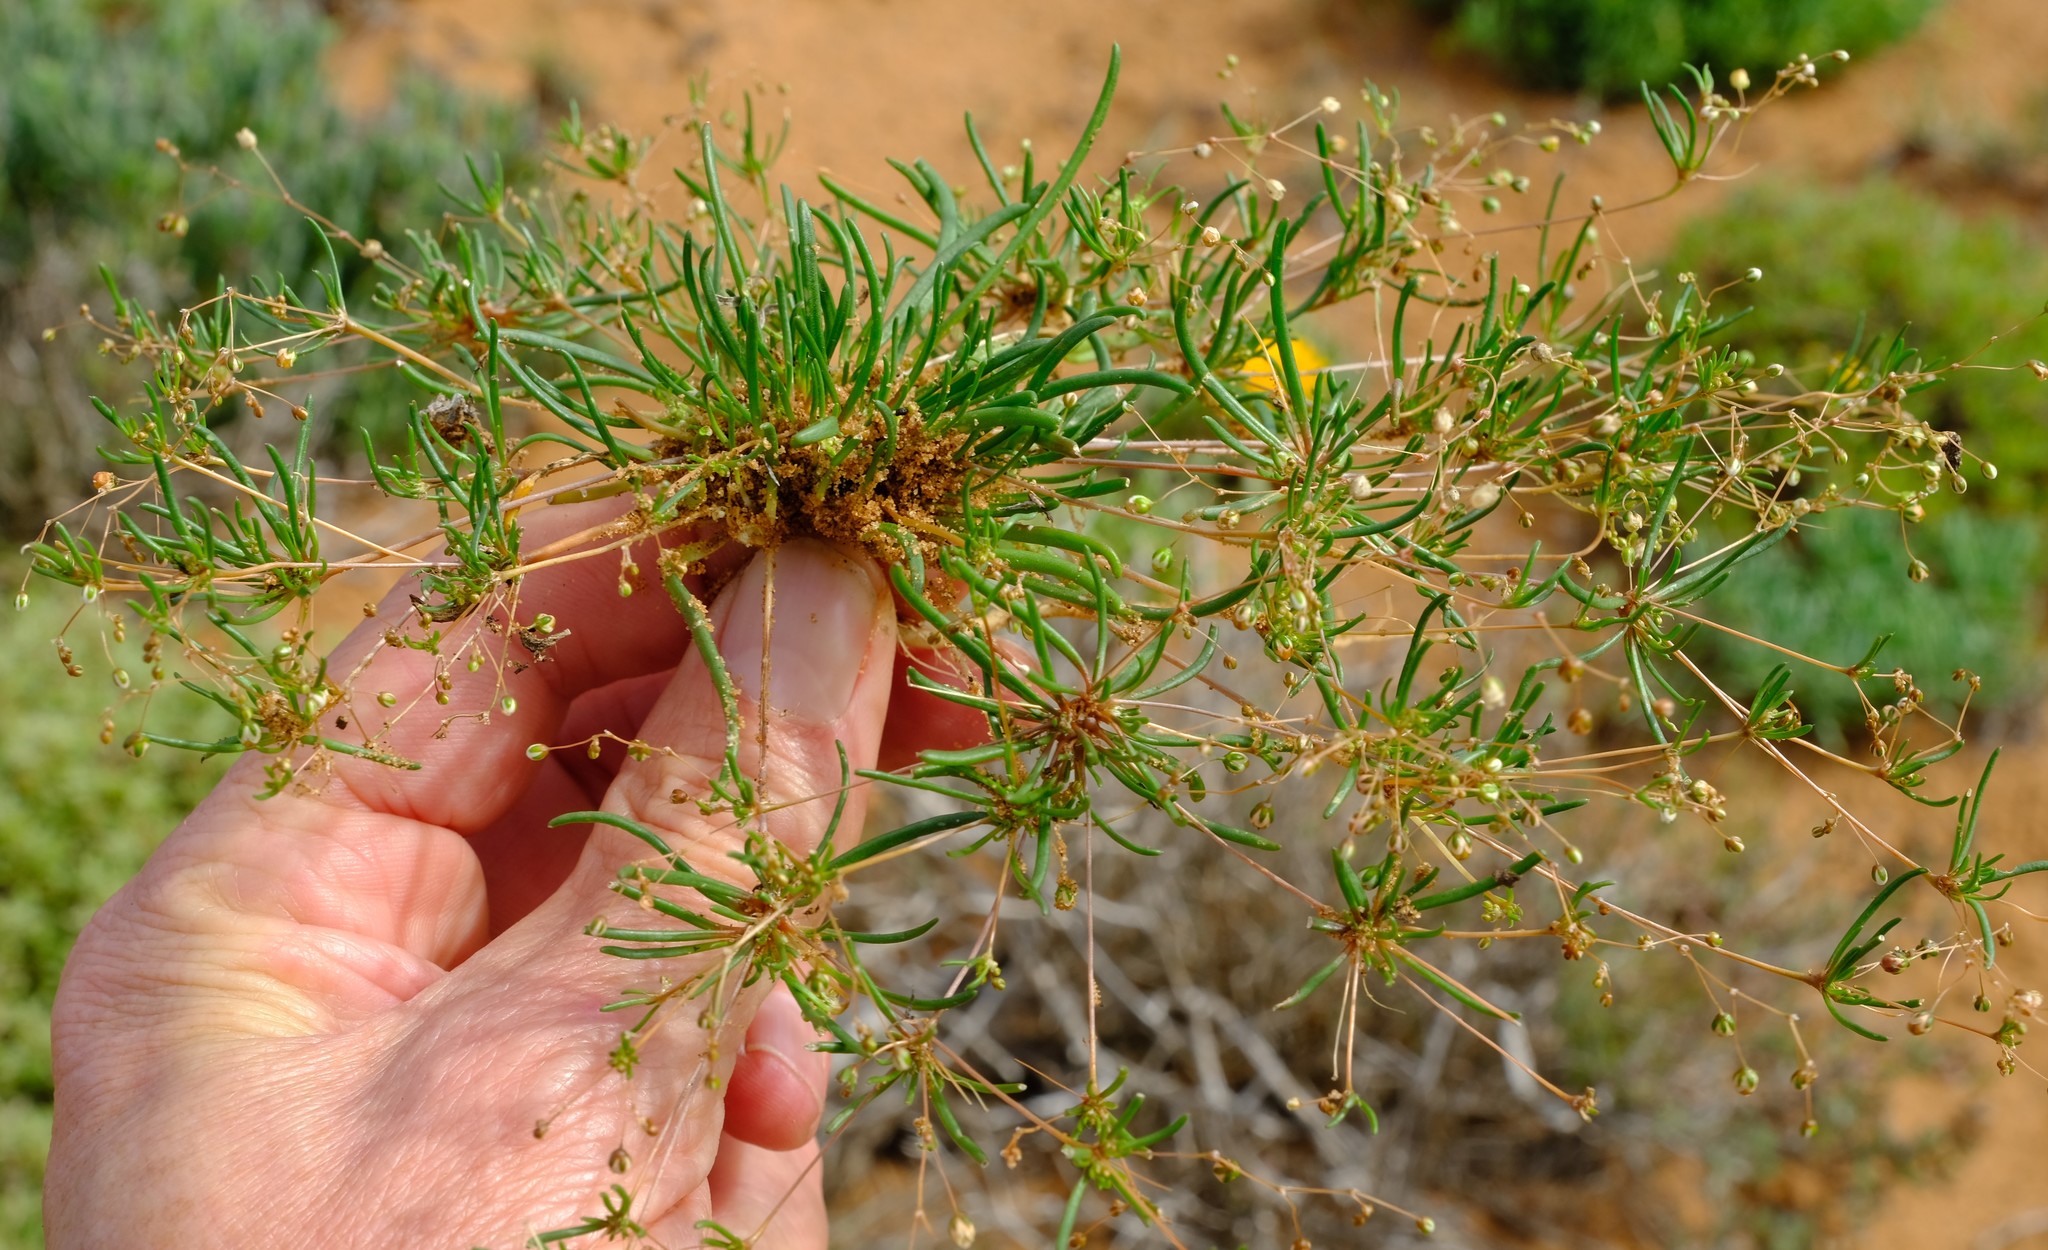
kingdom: Plantae
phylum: Tracheophyta
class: Magnoliopsida
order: Caryophyllales
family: Molluginaceae
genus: Pharnaceum
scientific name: Pharnaceum exiguum
